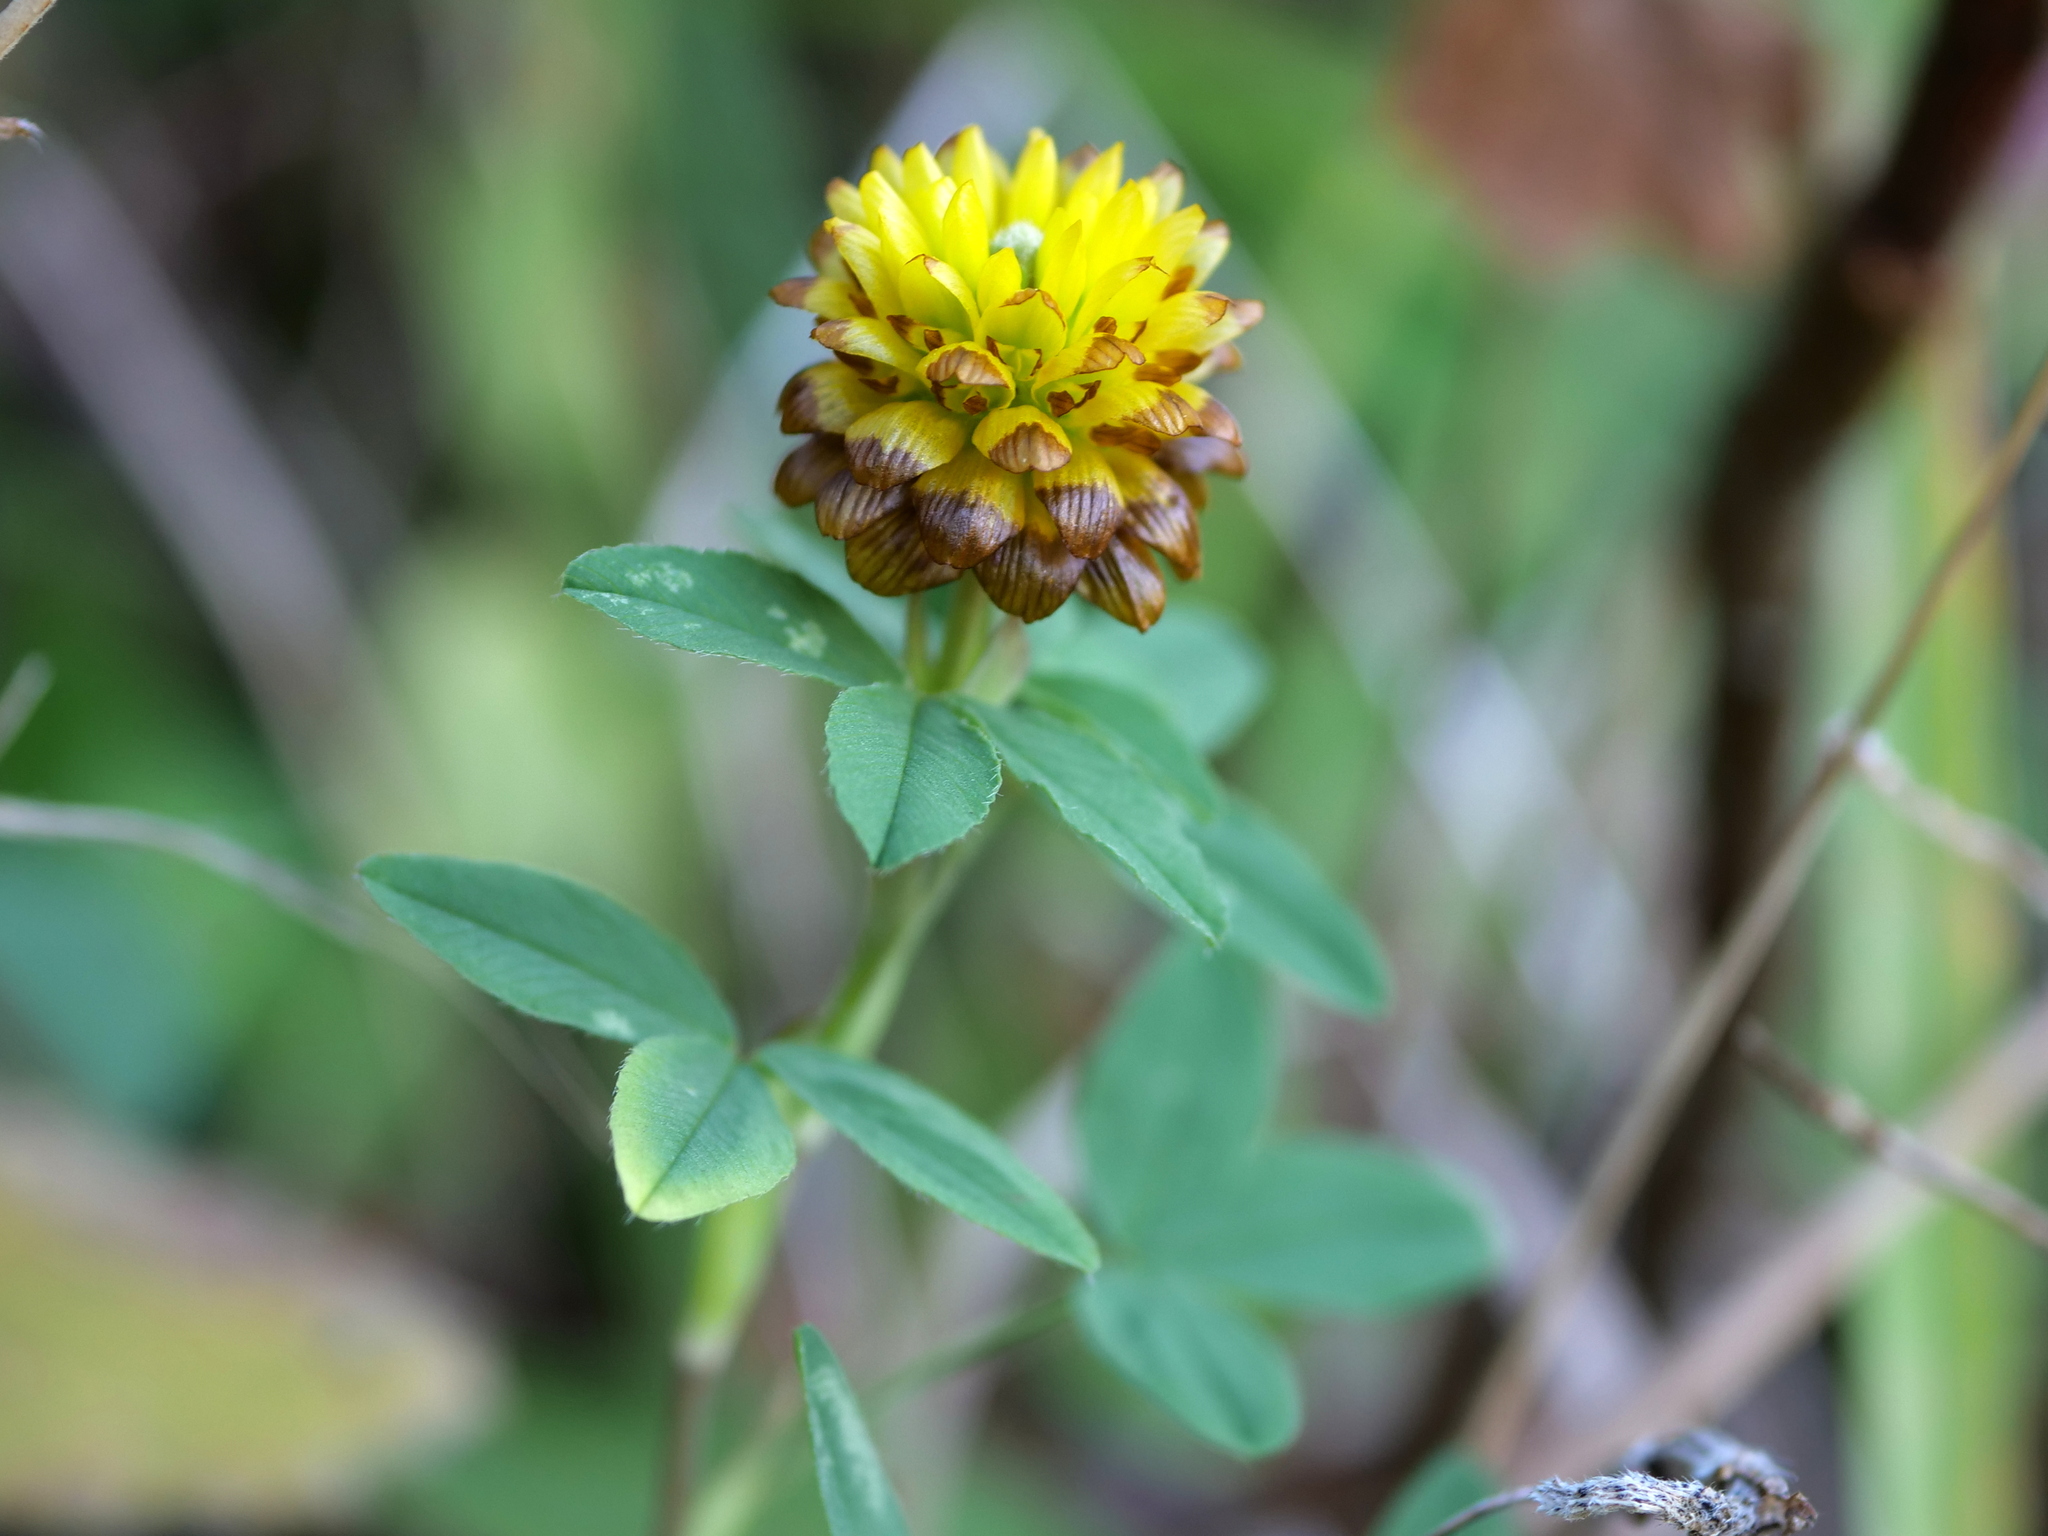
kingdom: Plantae
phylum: Tracheophyta
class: Magnoliopsida
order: Fabales
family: Fabaceae
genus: Trifolium
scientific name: Trifolium badium
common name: Brown clover
